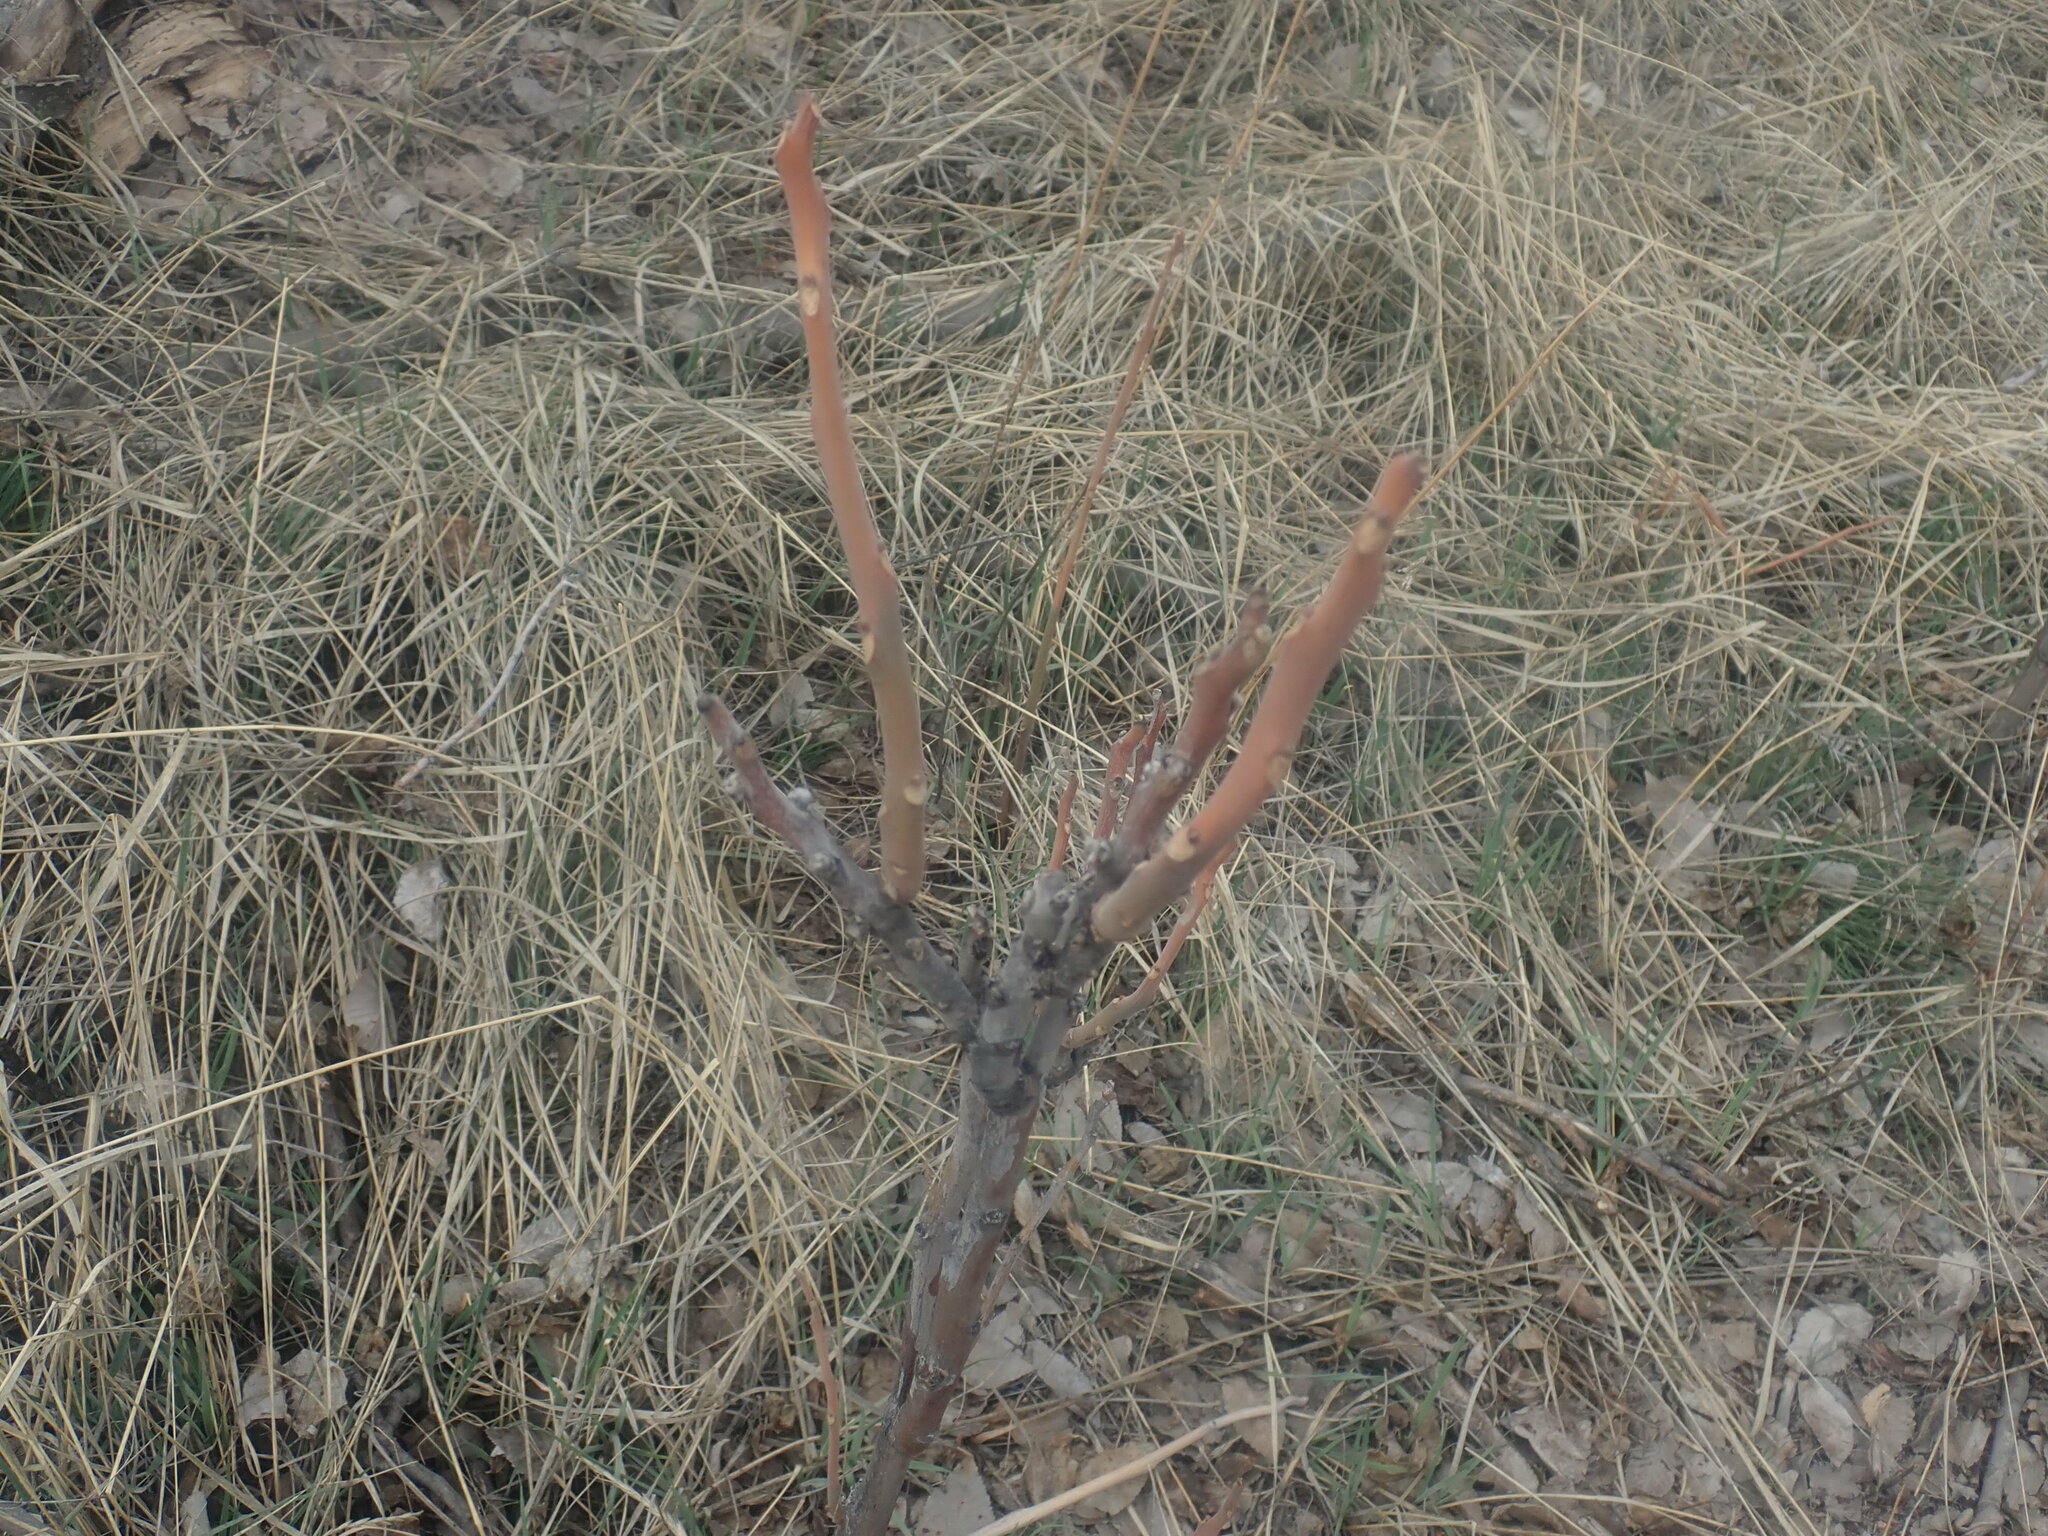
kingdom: Plantae
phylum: Tracheophyta
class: Magnoliopsida
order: Sapindales
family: Simaroubaceae
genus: Ailanthus
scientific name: Ailanthus altissima
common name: Tree-of-heaven
